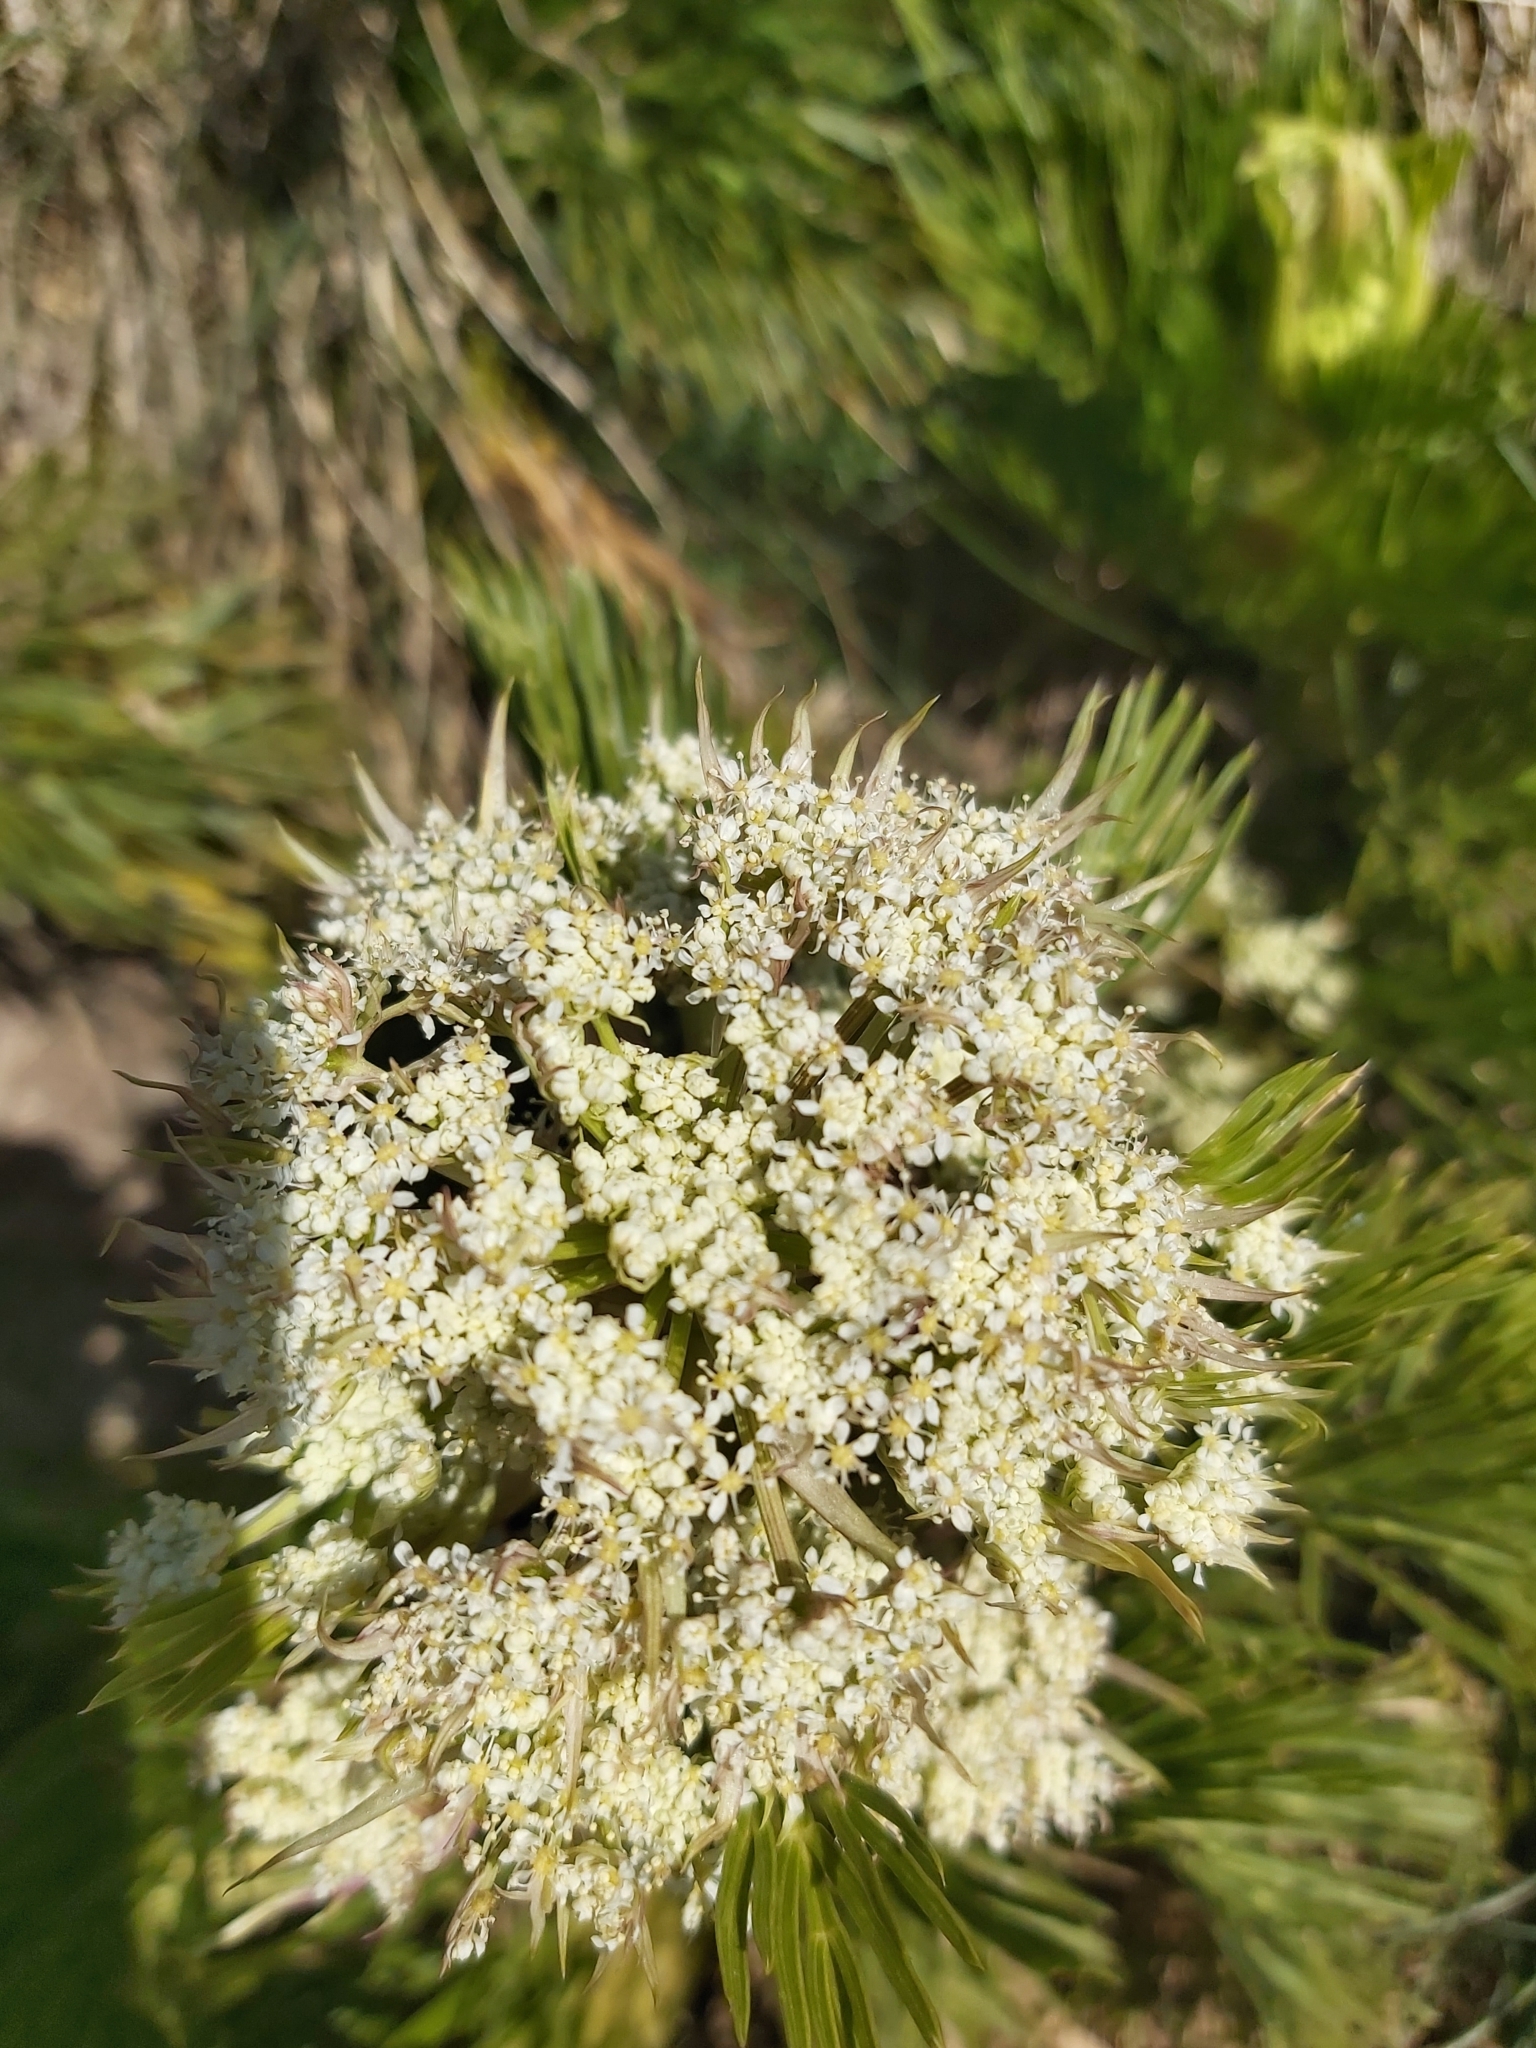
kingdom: Plantae
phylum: Tracheophyta
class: Magnoliopsida
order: Apiales
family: Apiaceae
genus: Aciphylla
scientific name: Aciphylla glacialis
